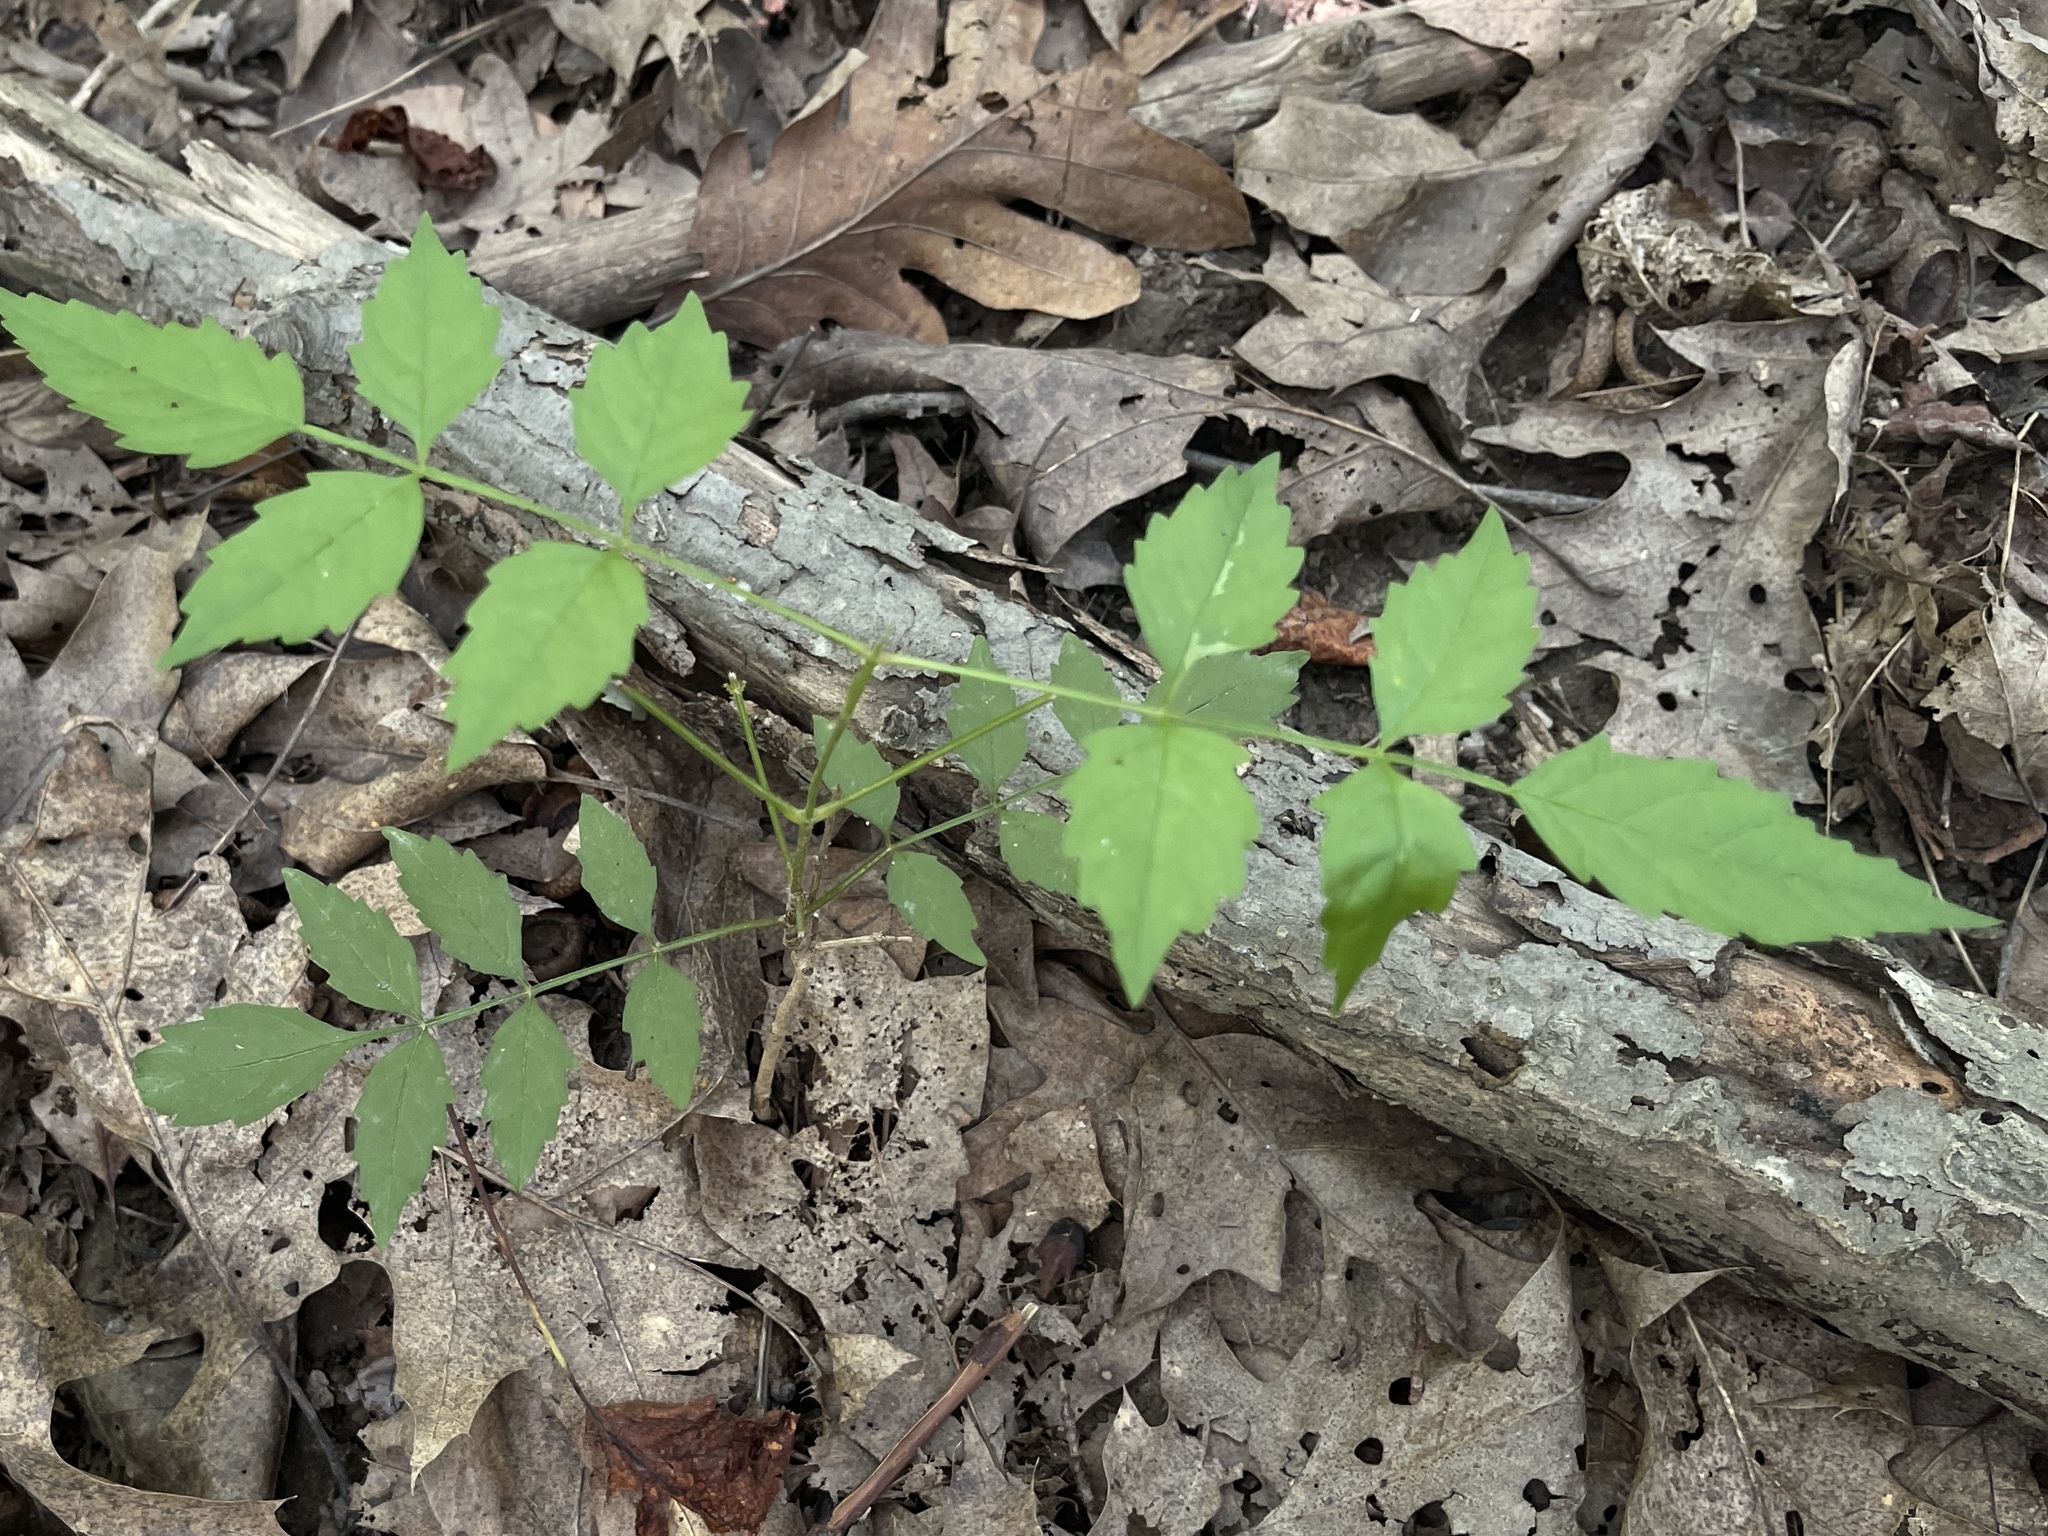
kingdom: Plantae
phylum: Tracheophyta
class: Magnoliopsida
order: Lamiales
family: Bignoniaceae
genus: Campsis
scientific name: Campsis radicans
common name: Trumpet-creeper
